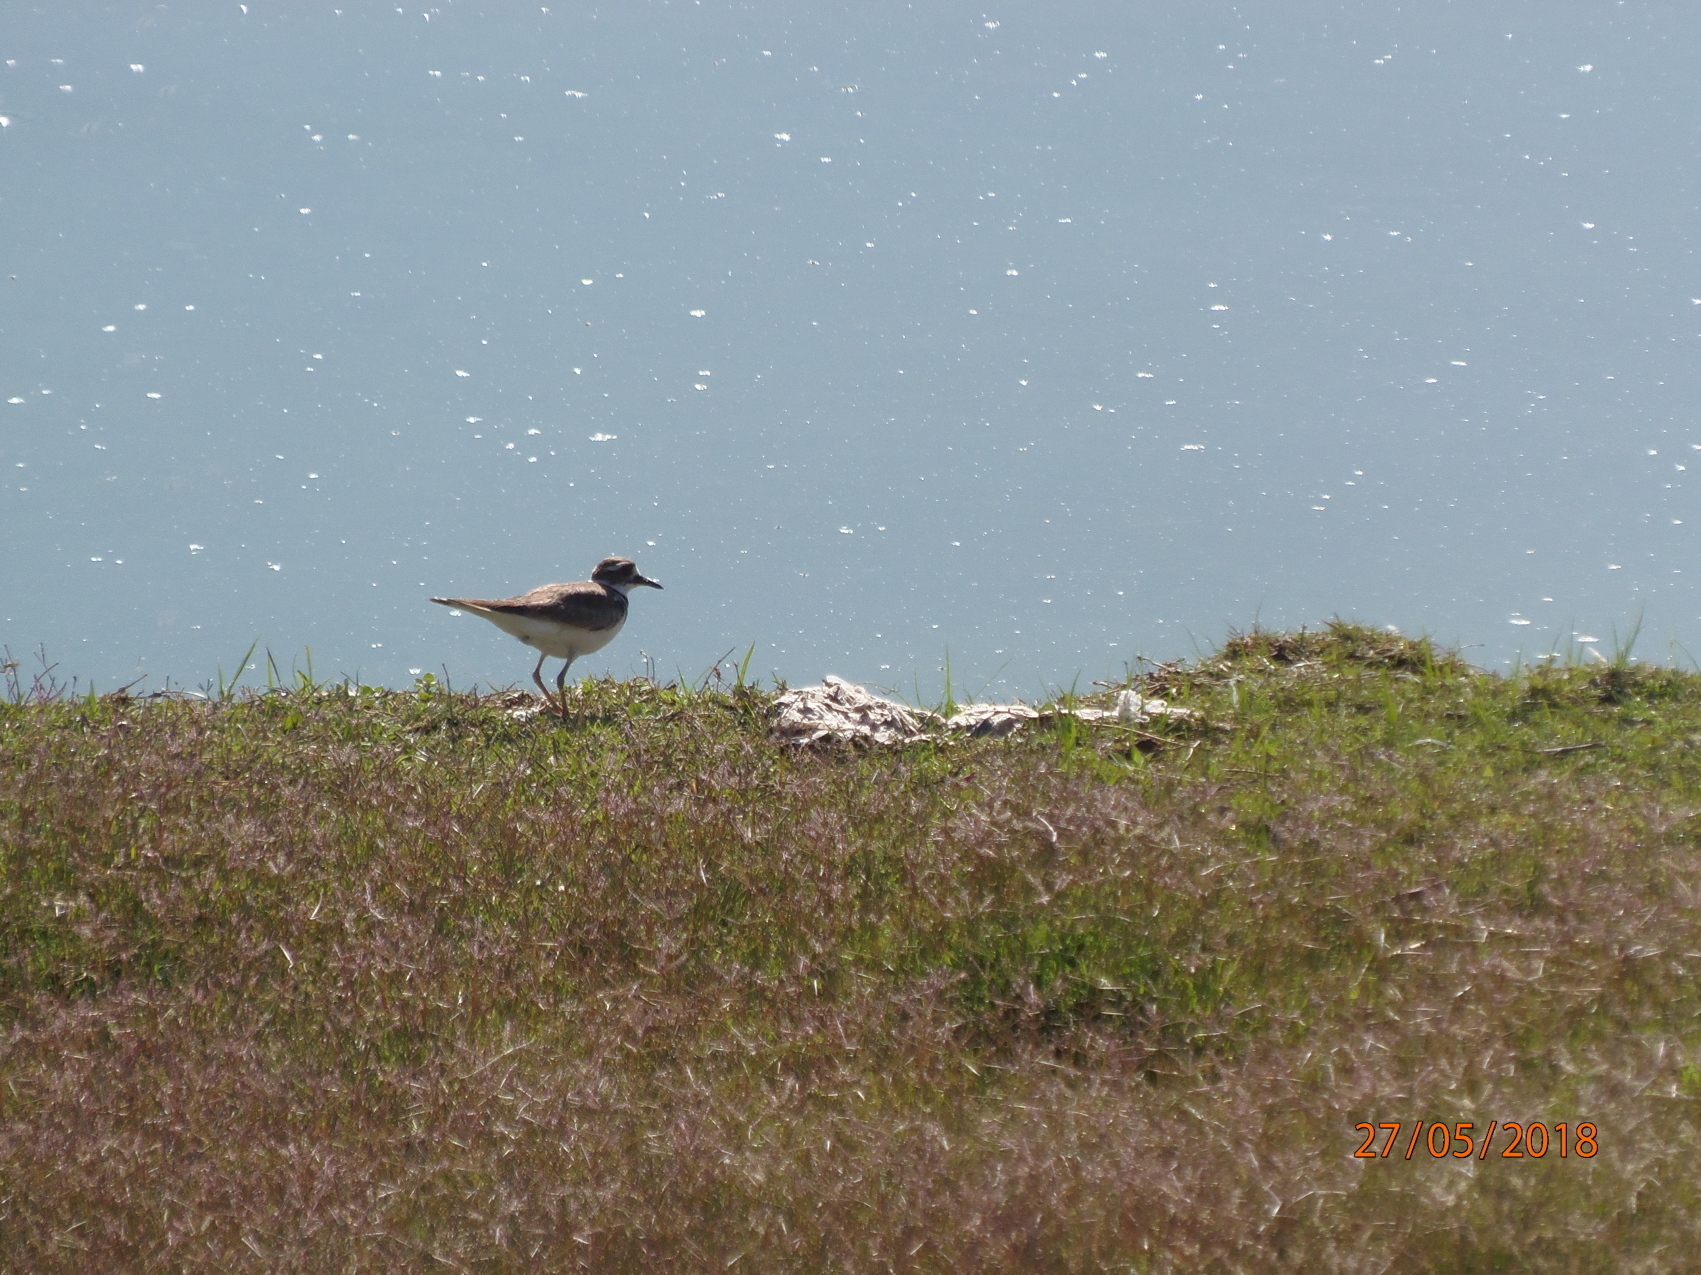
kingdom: Animalia
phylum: Chordata
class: Aves
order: Charadriiformes
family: Charadriidae
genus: Charadrius
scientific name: Charadrius vociferus
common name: Killdeer
